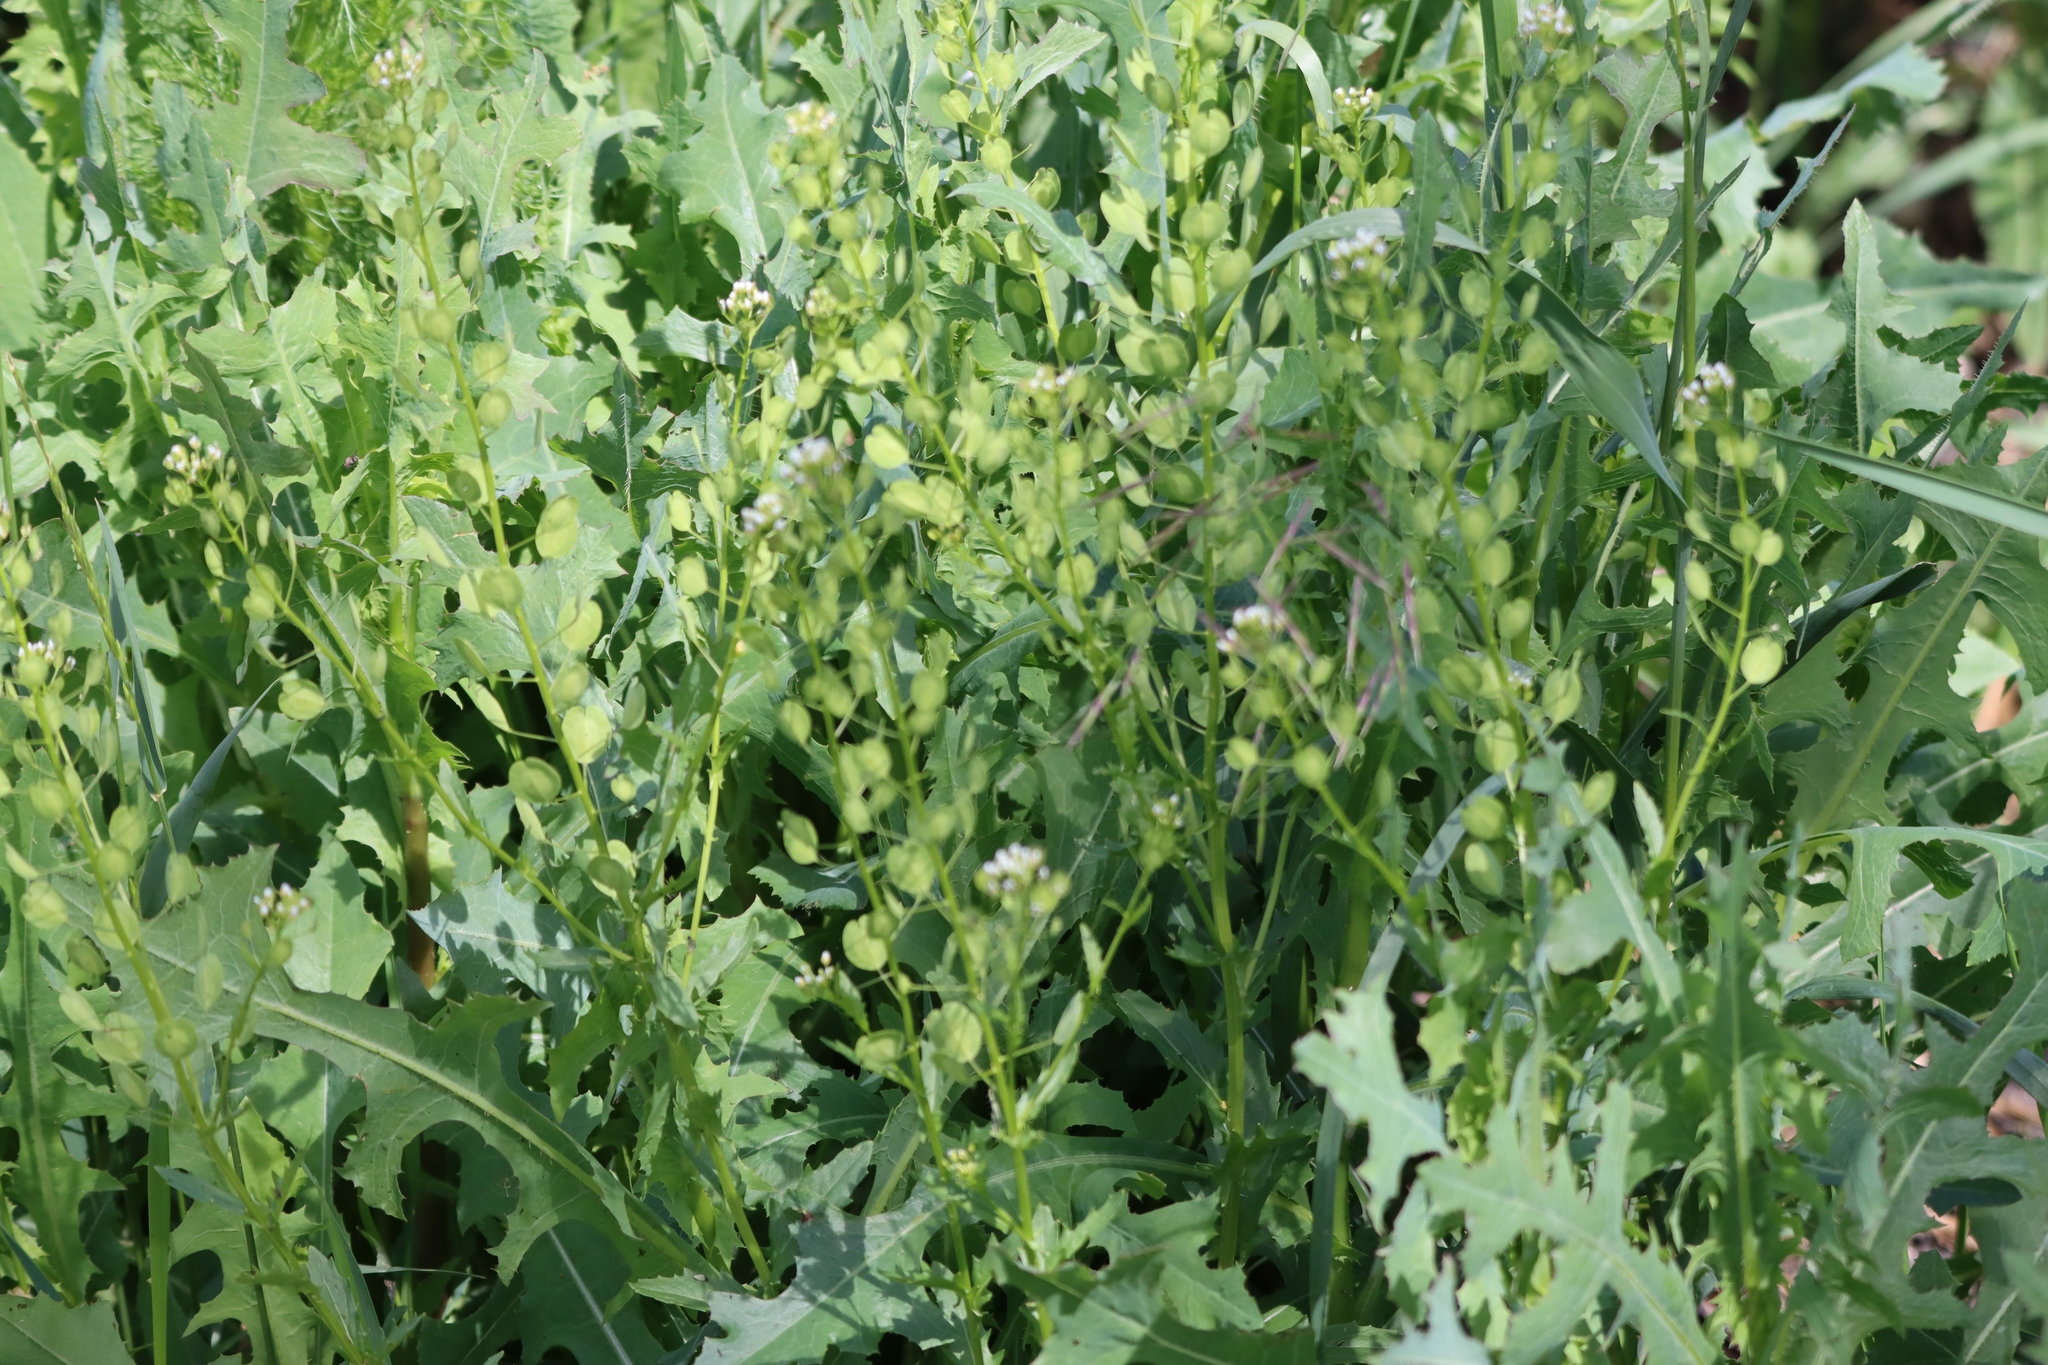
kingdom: Plantae
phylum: Tracheophyta
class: Magnoliopsida
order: Brassicales
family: Brassicaceae
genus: Thlaspi
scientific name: Thlaspi arvense
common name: Field pennycress
